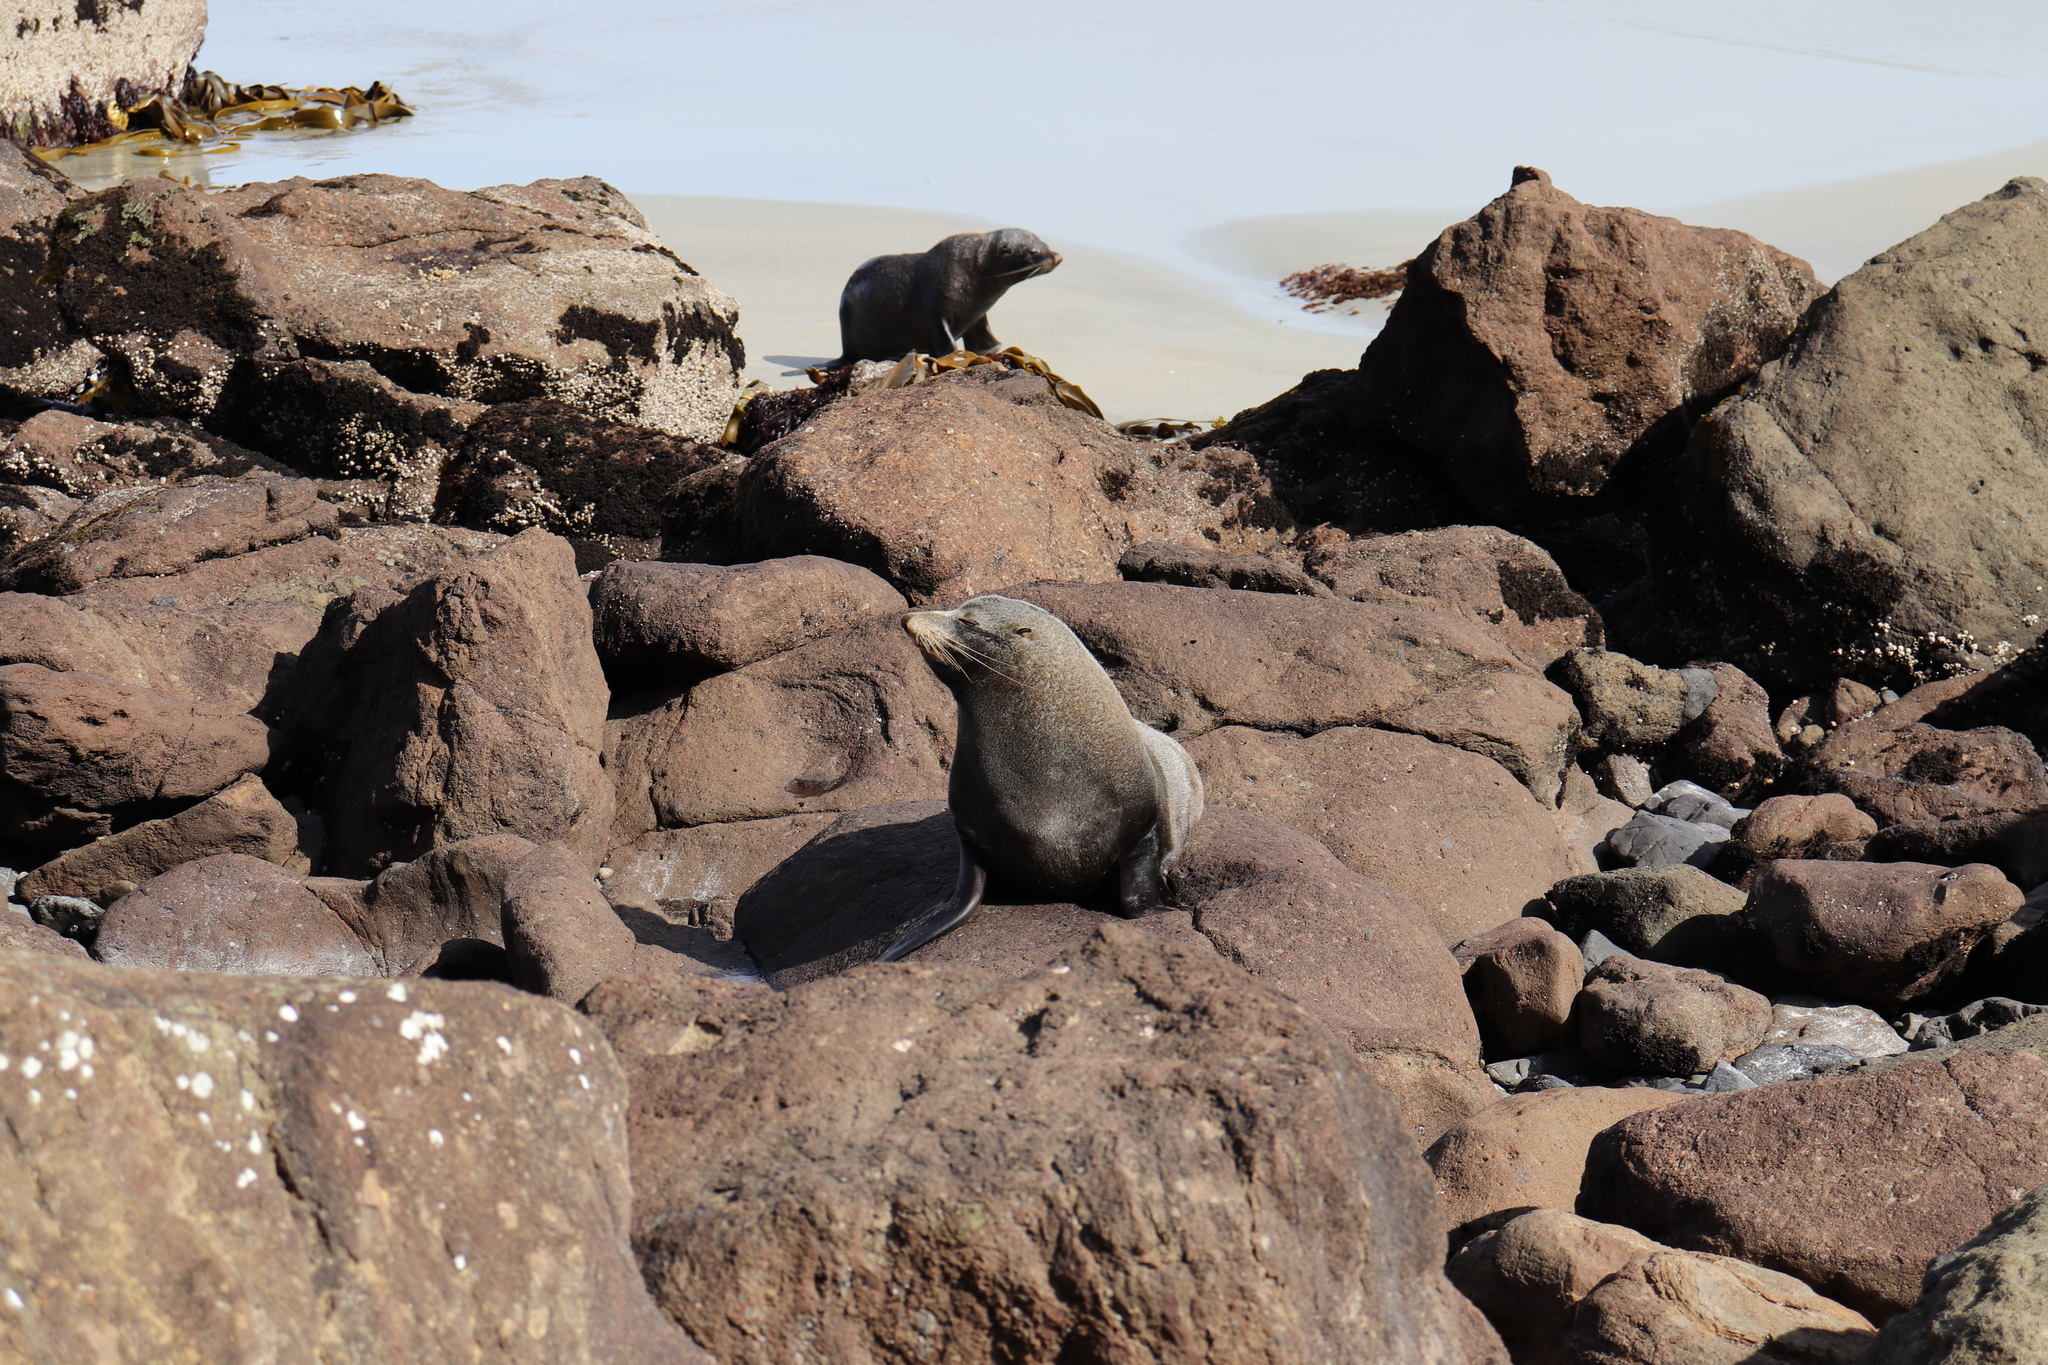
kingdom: Animalia
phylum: Chordata
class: Mammalia
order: Carnivora
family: Otariidae
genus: Arctocephalus
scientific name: Arctocephalus forsteri
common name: New zealand fur seal
